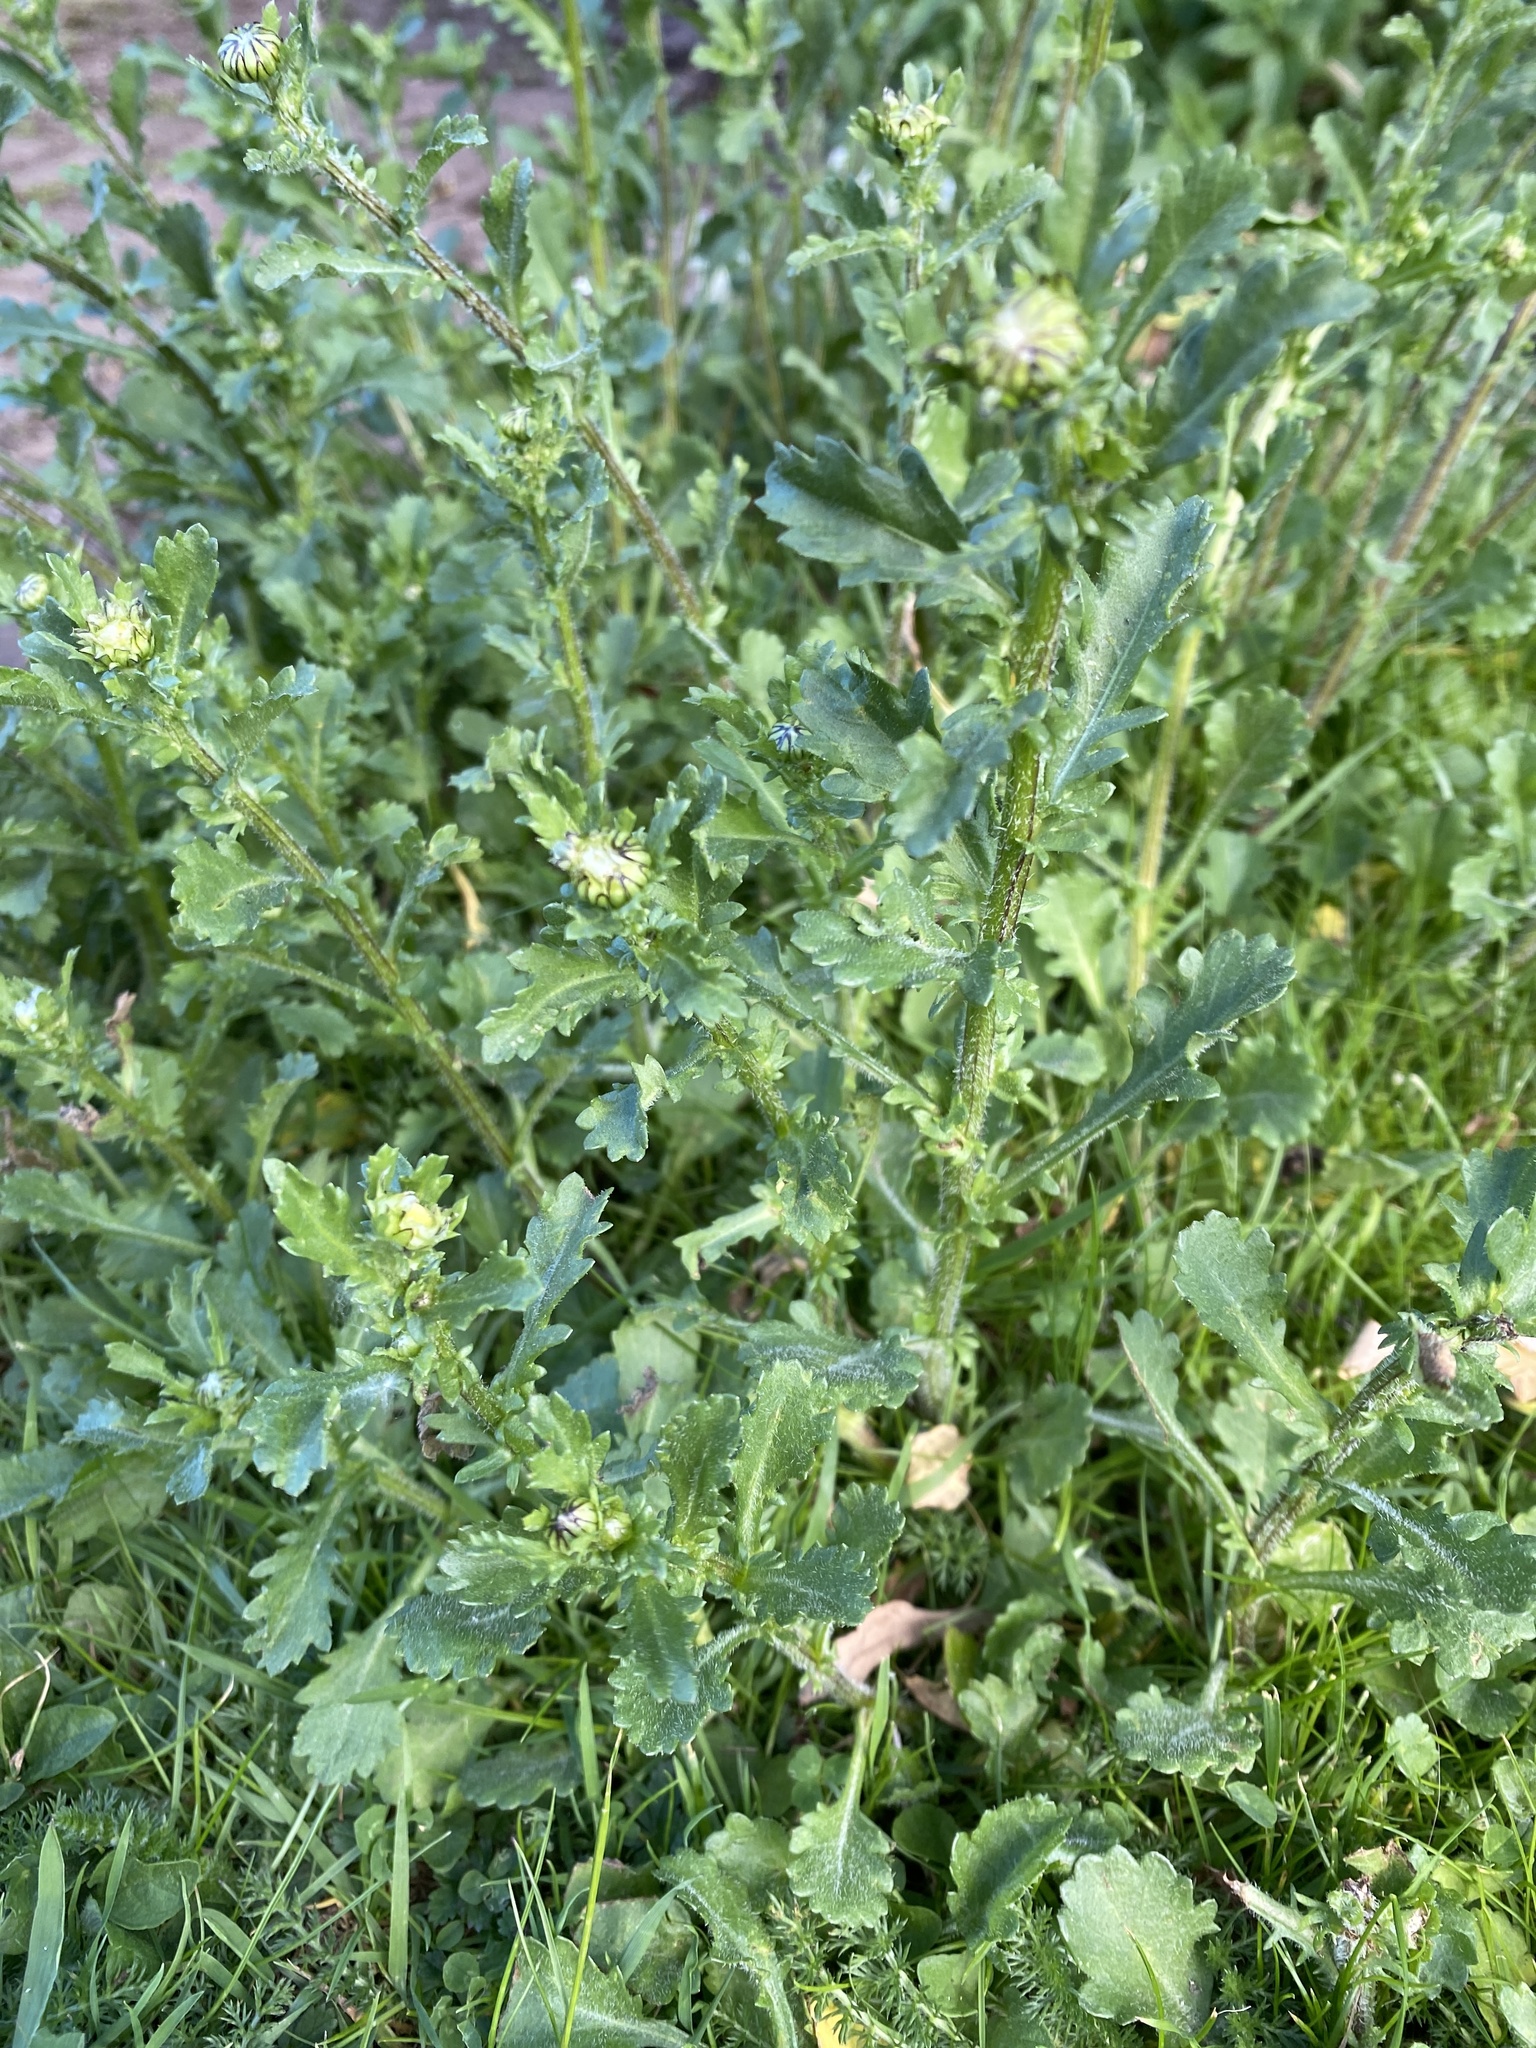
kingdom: Plantae
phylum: Tracheophyta
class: Magnoliopsida
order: Asterales
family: Asteraceae
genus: Leucanthemum
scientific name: Leucanthemum vulgare
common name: Oxeye daisy
